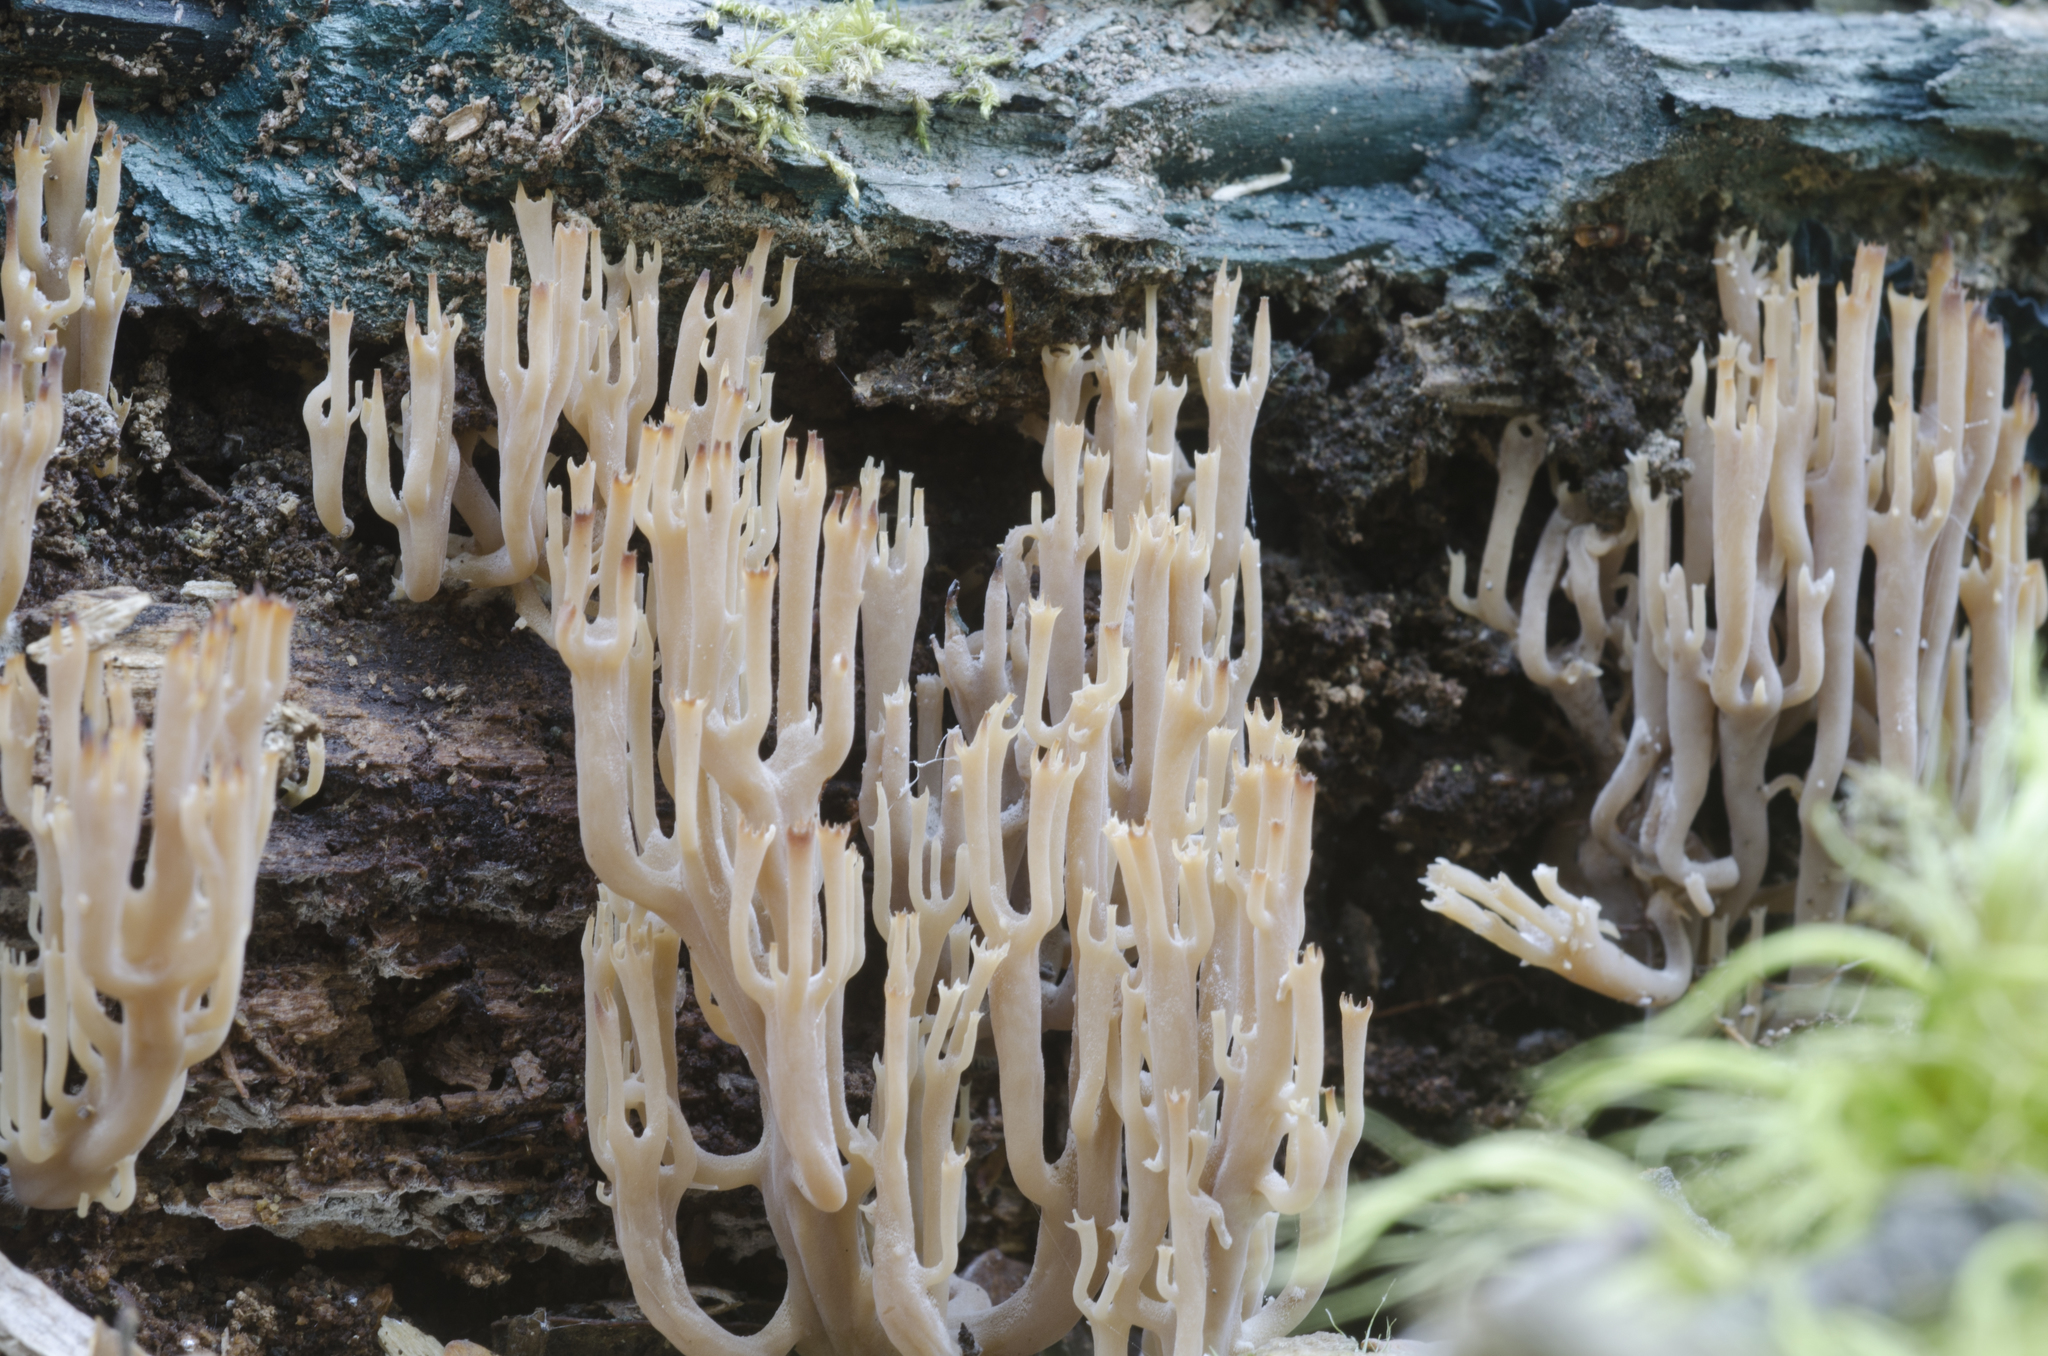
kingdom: Fungi
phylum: Basidiomycota
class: Agaricomycetes
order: Russulales
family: Auriscalpiaceae
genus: Artomyces
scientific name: Artomyces novae-zelandiae
